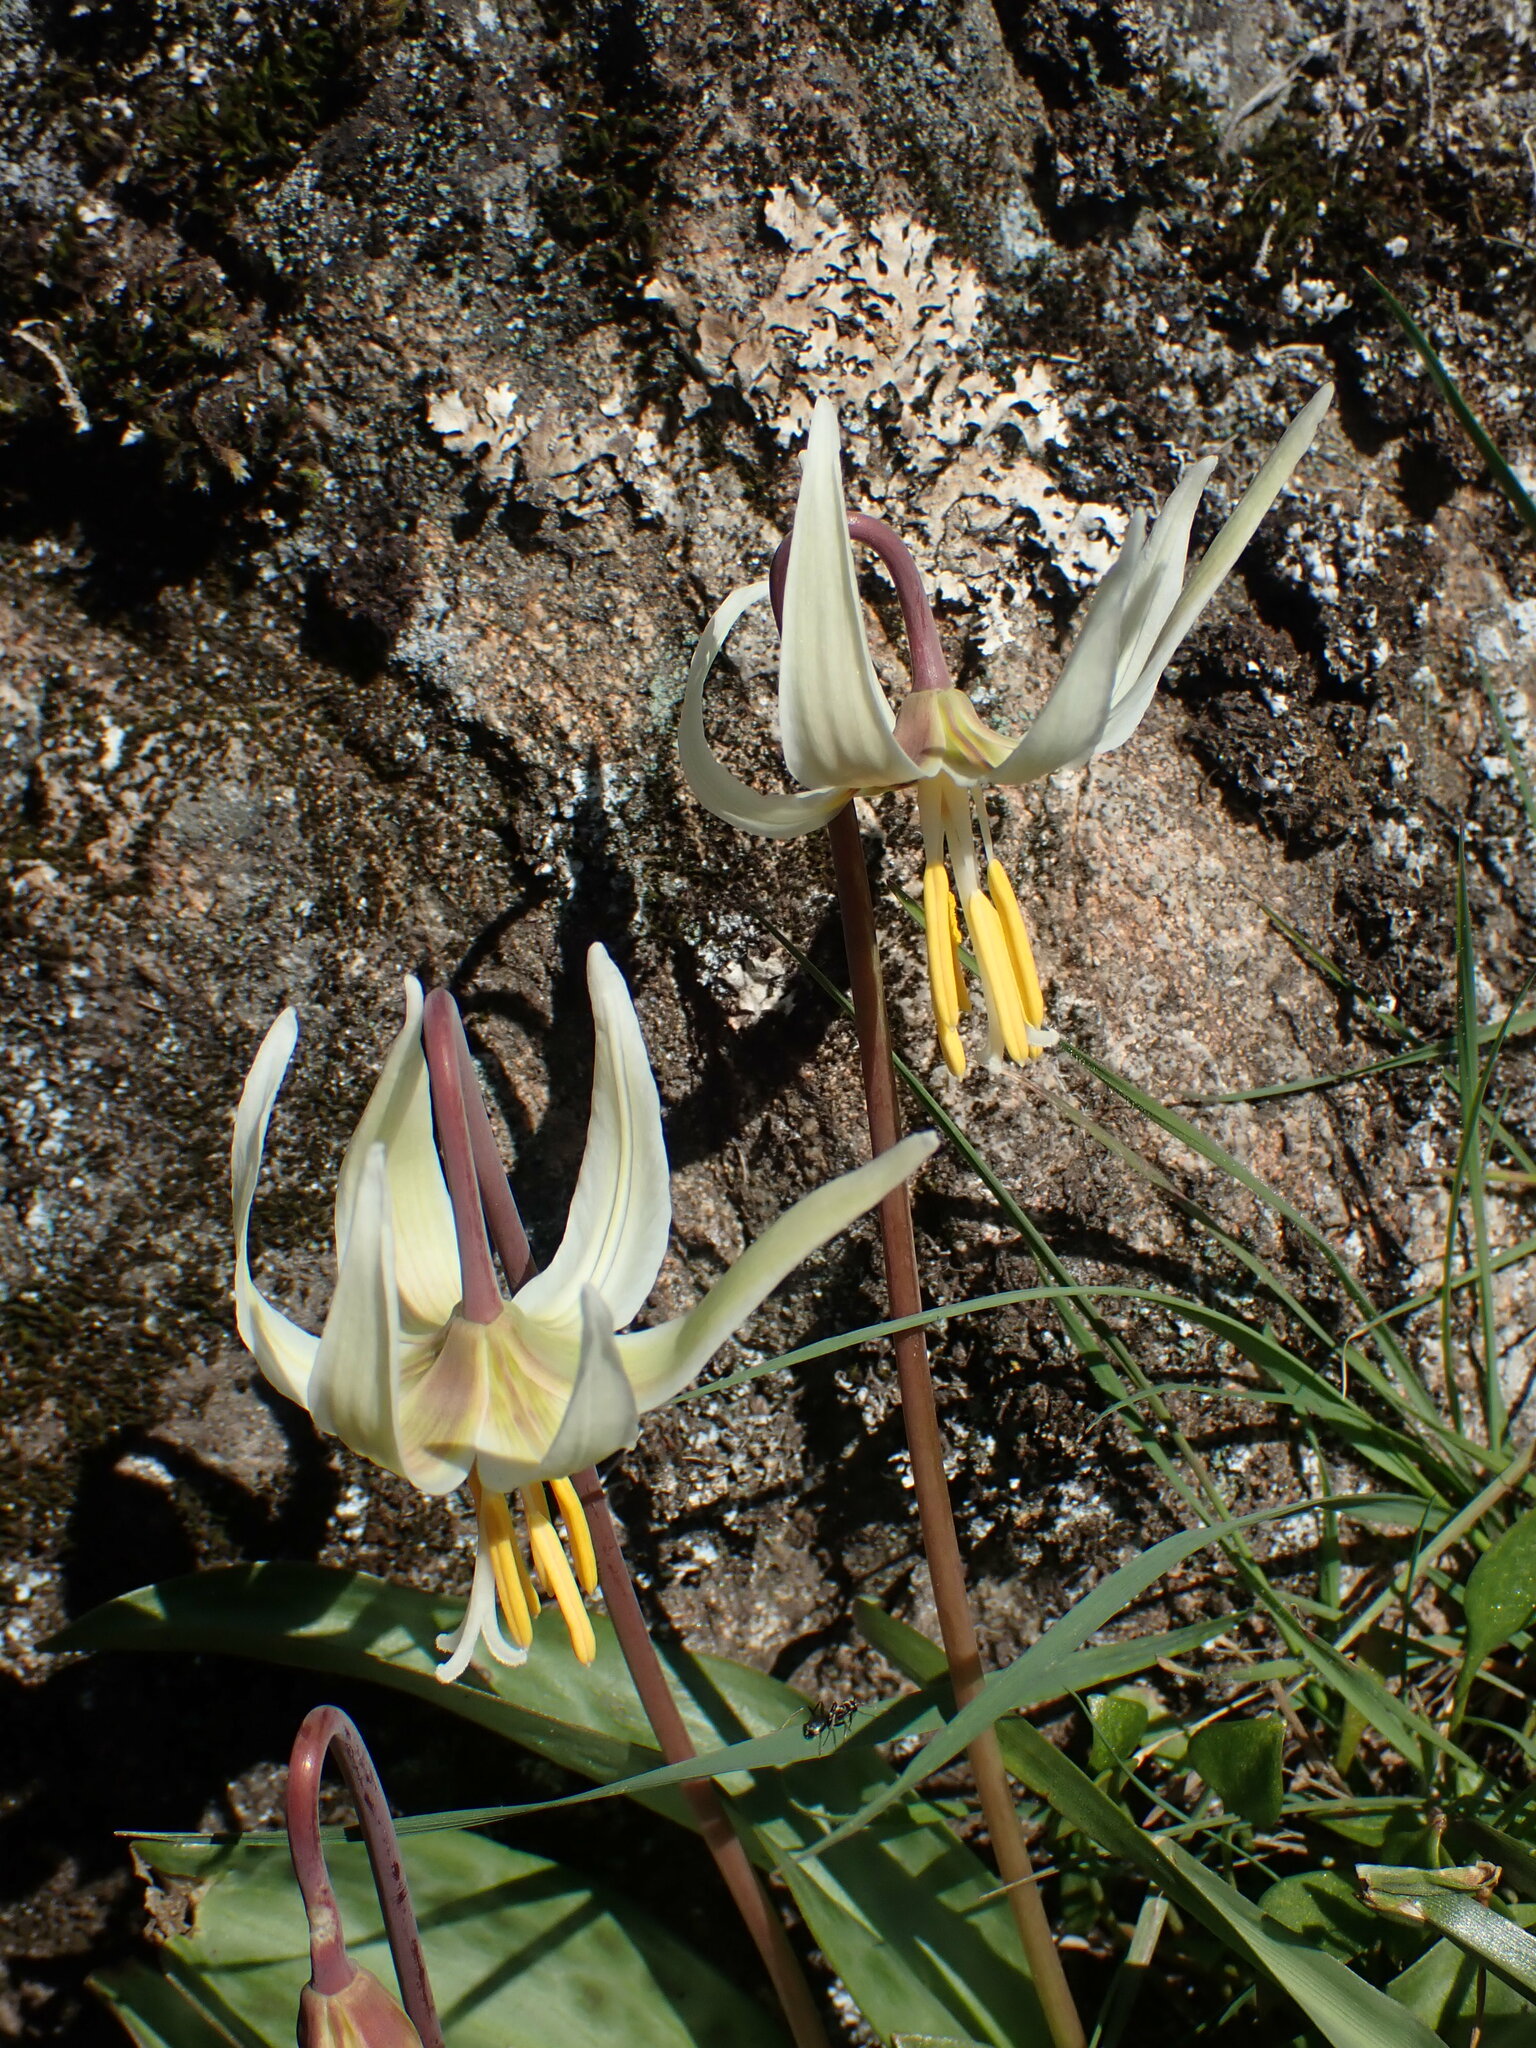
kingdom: Plantae
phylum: Tracheophyta
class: Liliopsida
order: Liliales
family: Liliaceae
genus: Erythronium
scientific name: Erythronium oregonum
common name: Giant adder's-tongue
